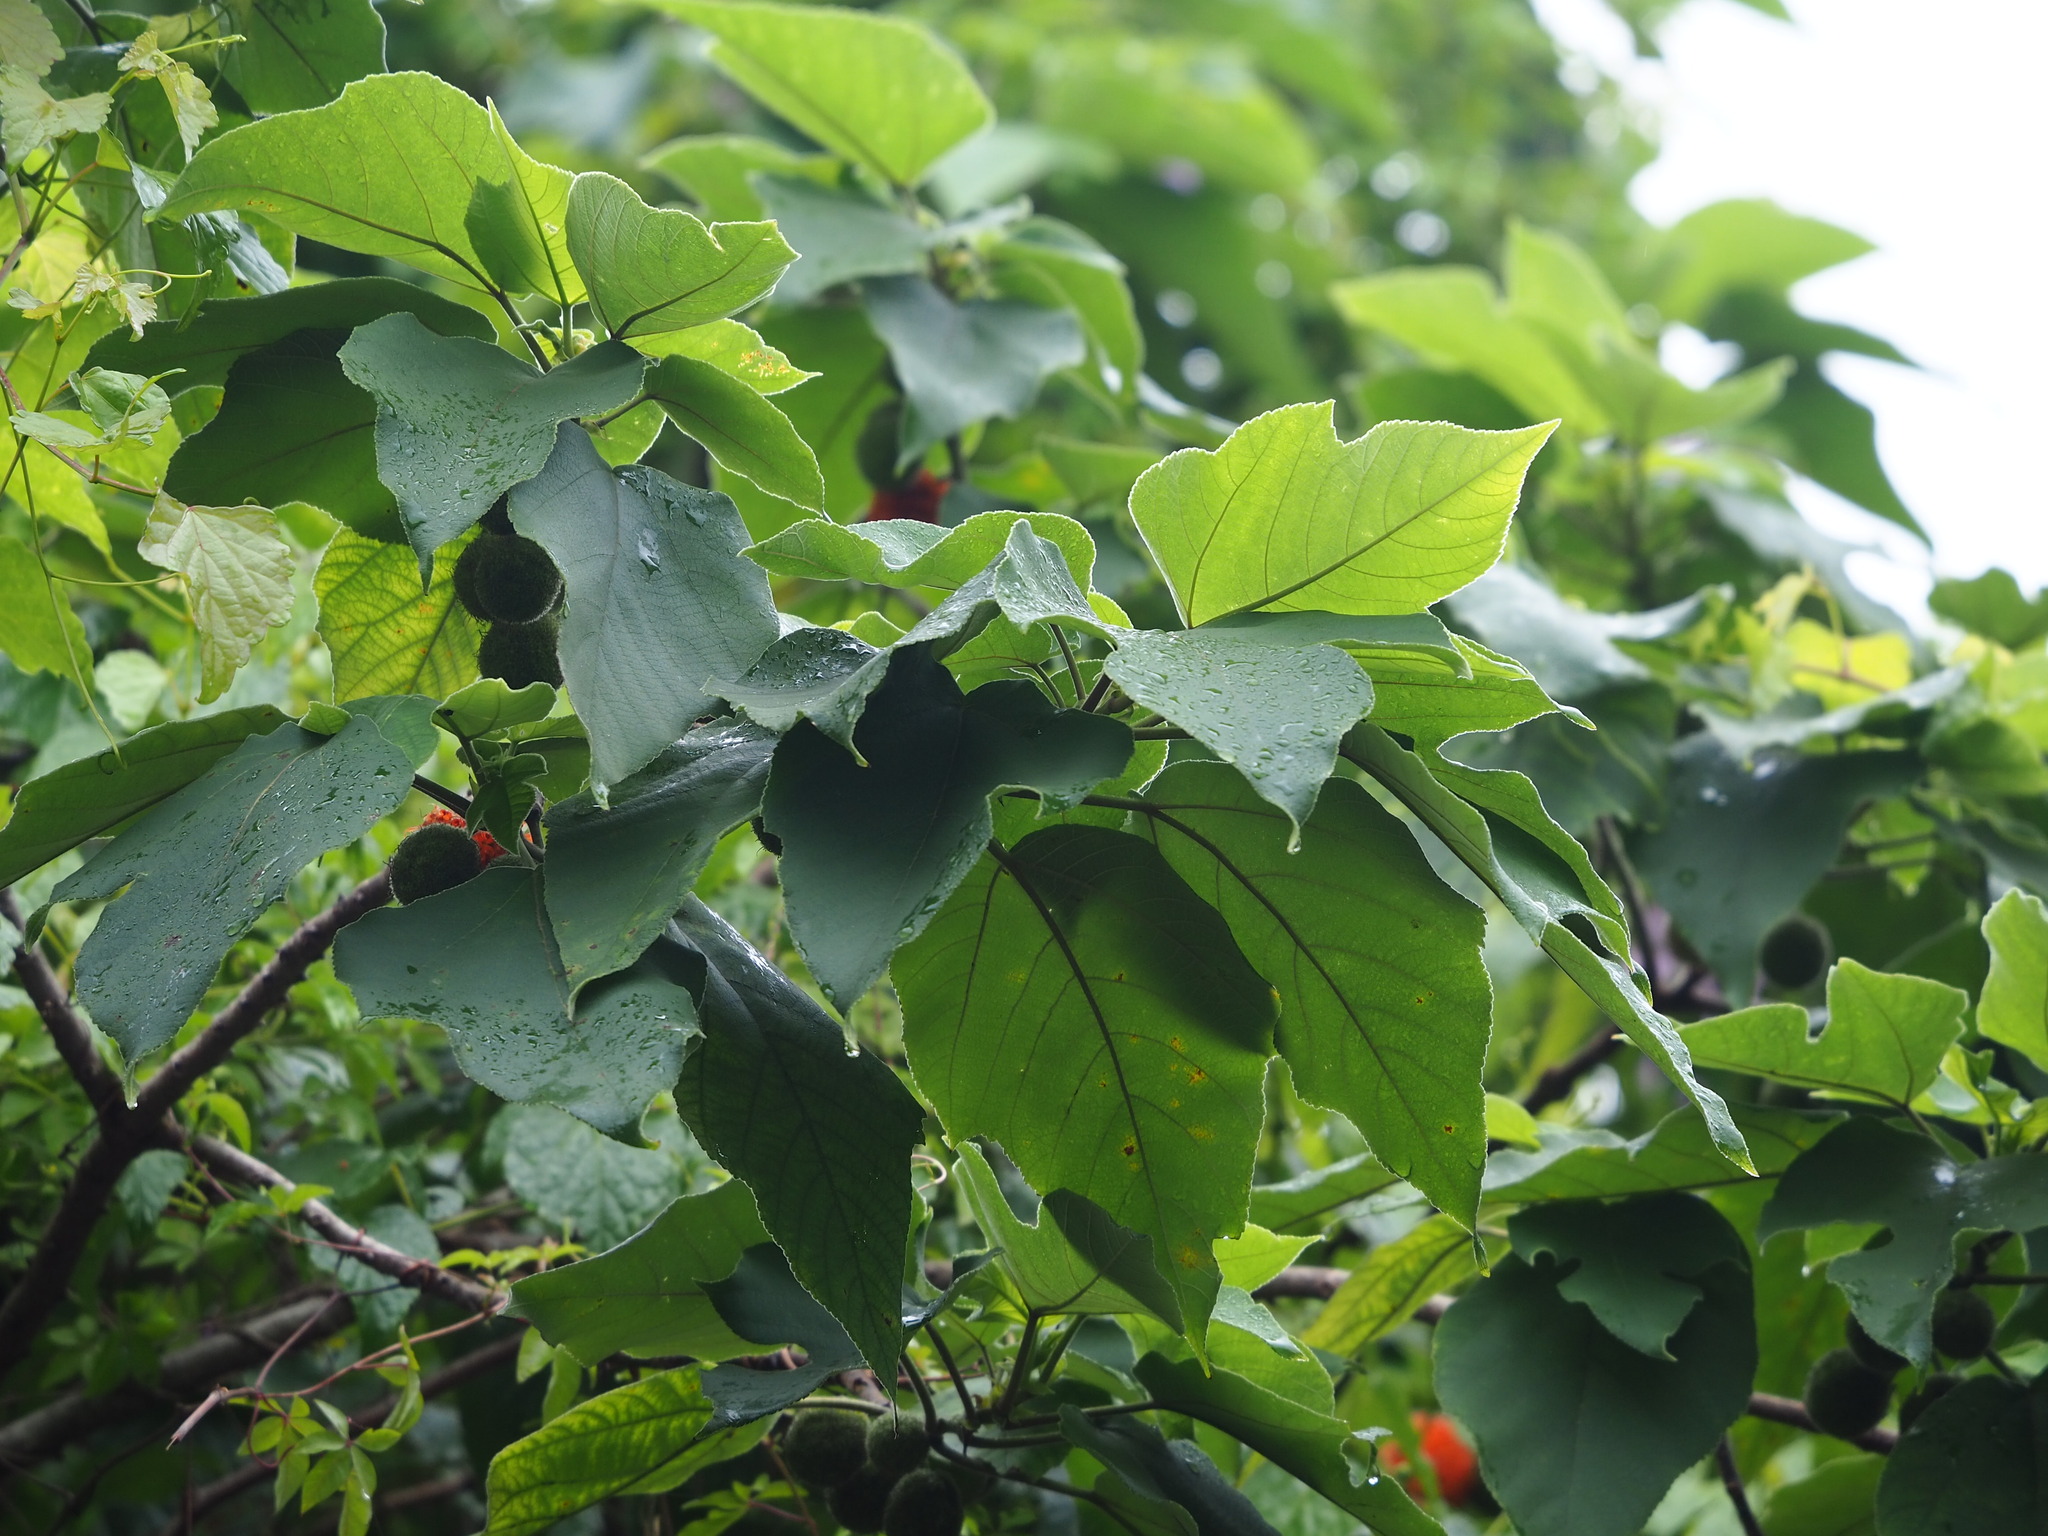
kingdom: Plantae
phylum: Tracheophyta
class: Magnoliopsida
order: Rosales
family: Moraceae
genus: Broussonetia
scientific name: Broussonetia papyrifera
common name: Paper mulberry
